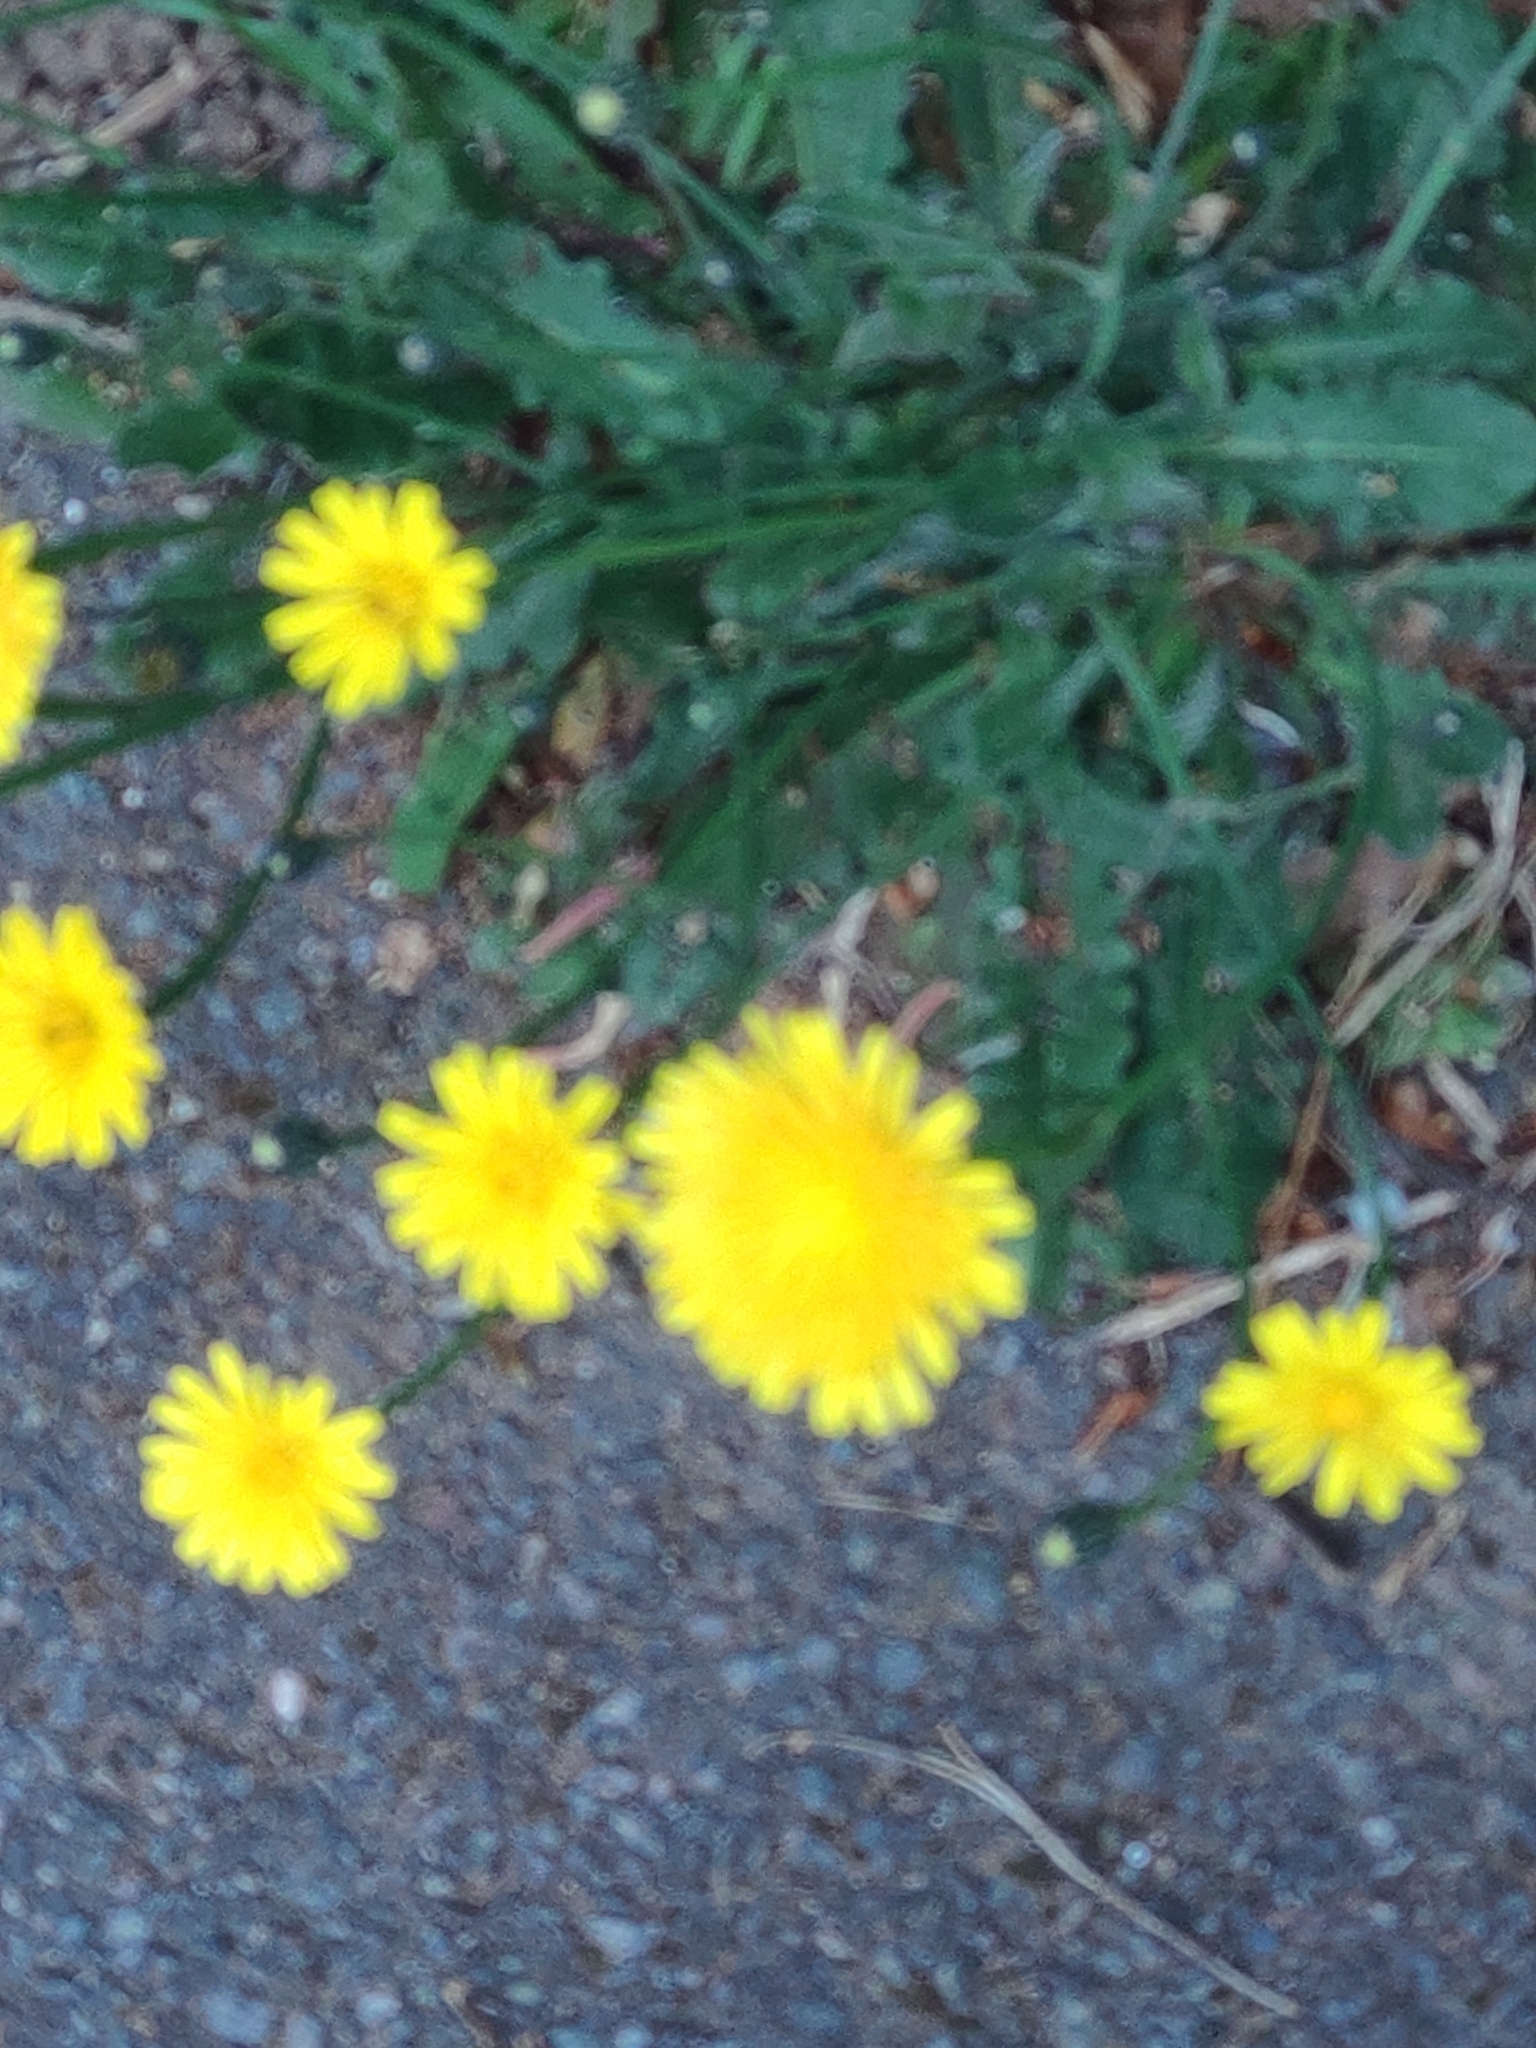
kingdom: Plantae
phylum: Tracheophyta
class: Magnoliopsida
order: Asterales
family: Asteraceae
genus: Hypochaeris
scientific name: Hypochaeris radicata
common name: Flatweed
